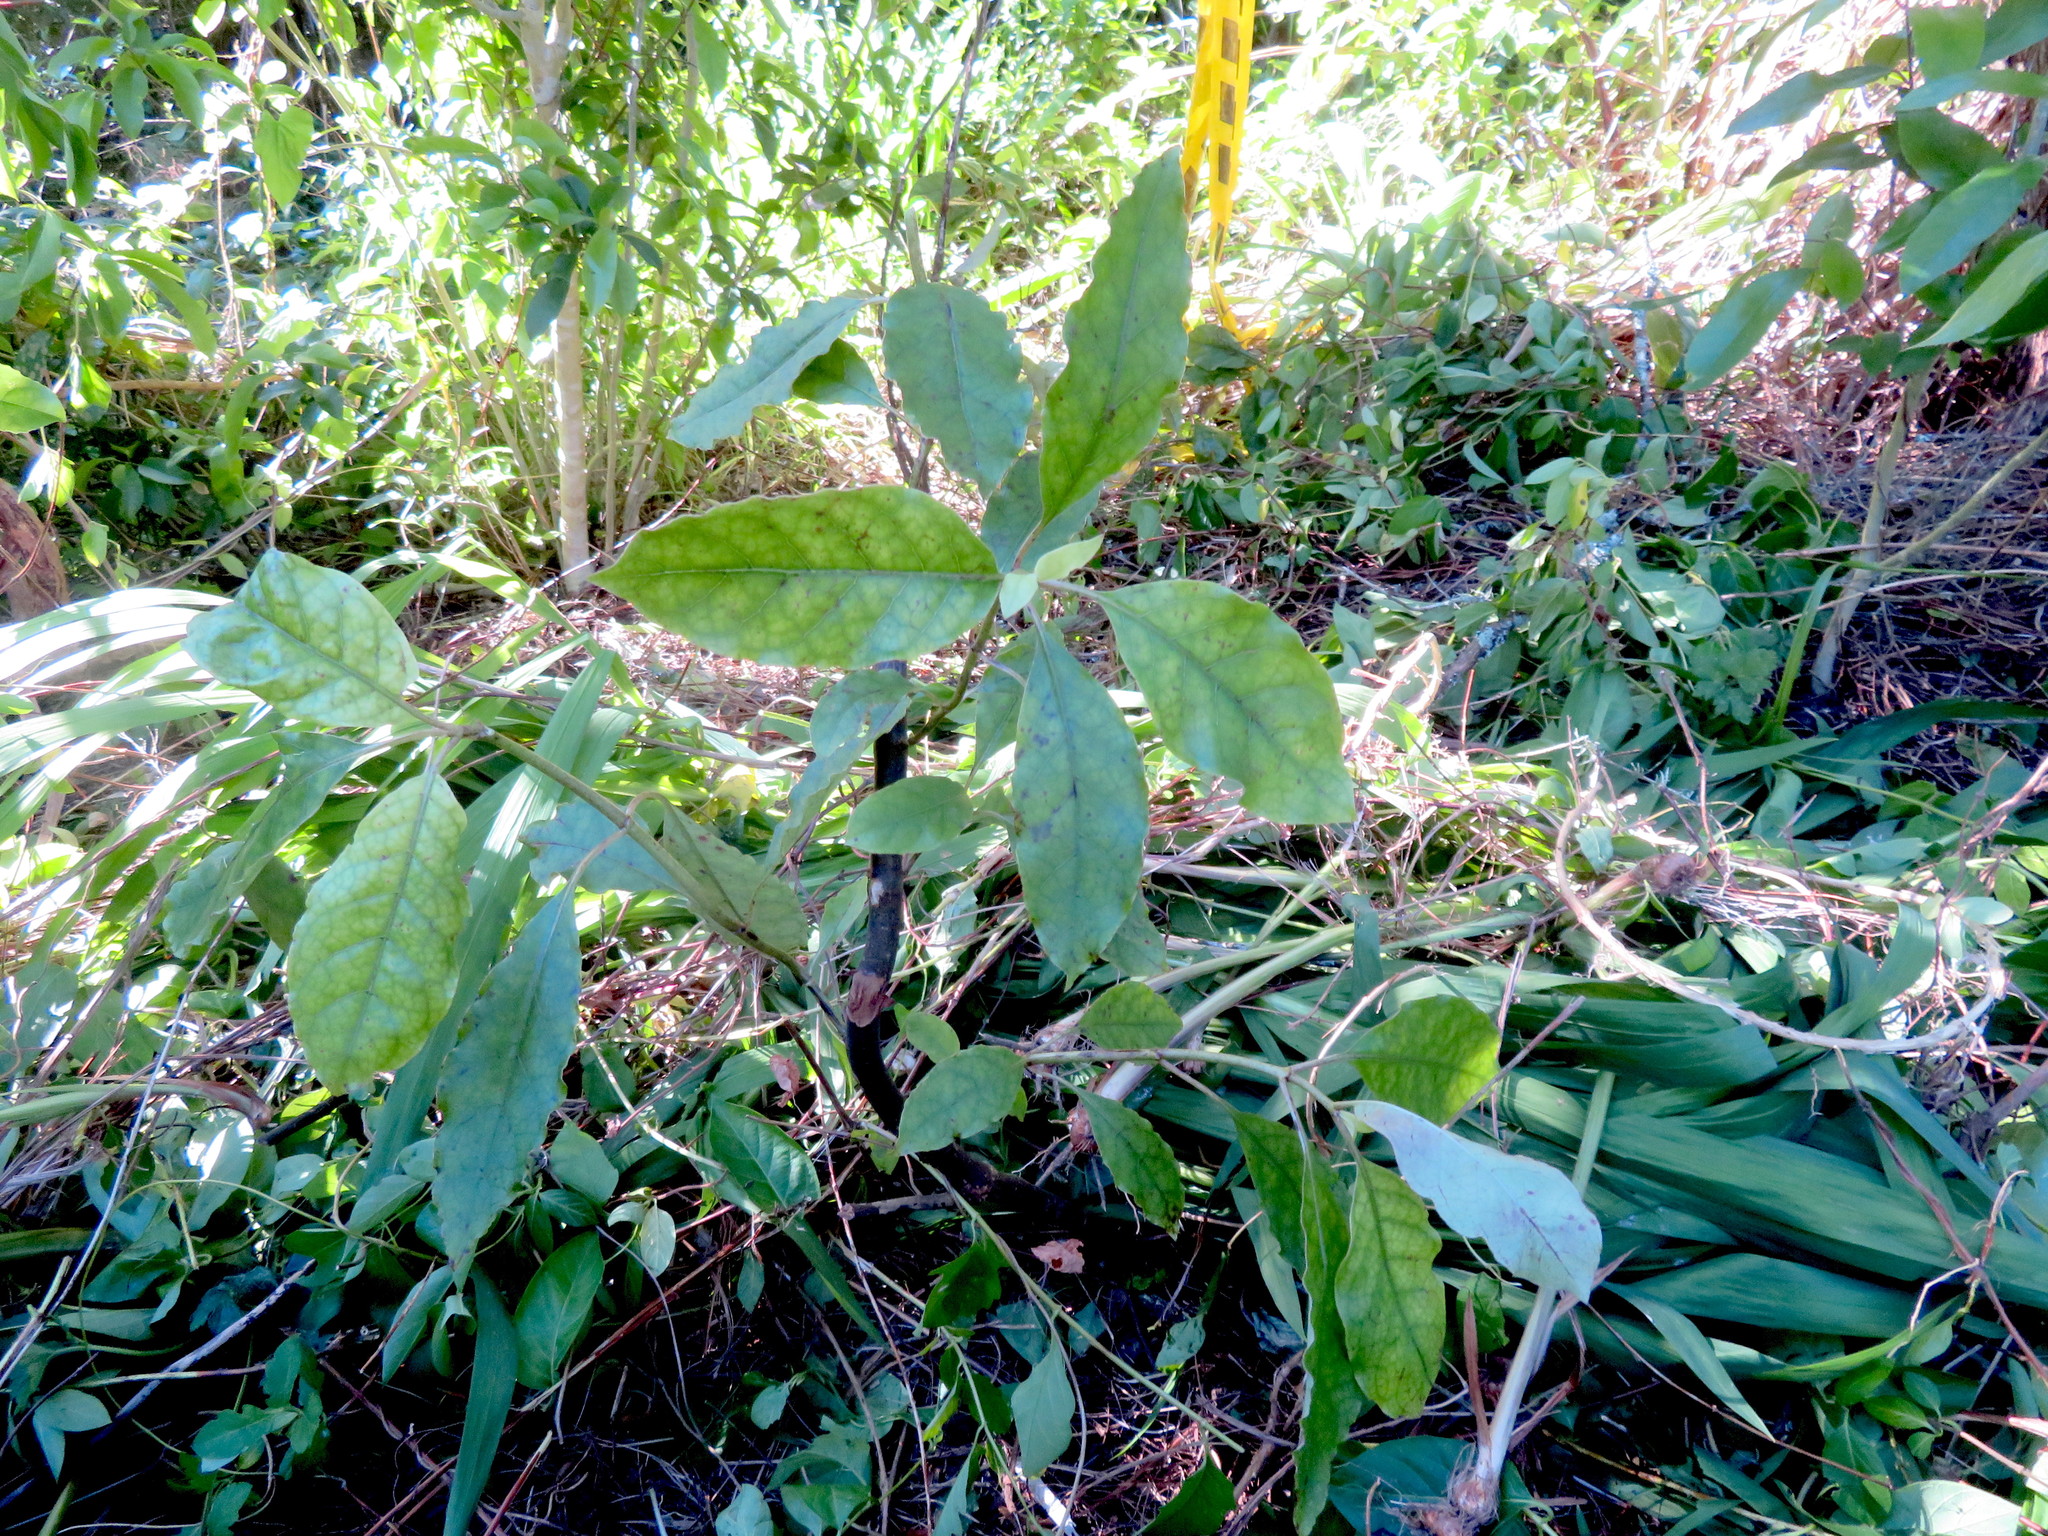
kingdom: Plantae
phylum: Tracheophyta
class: Magnoliopsida
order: Gentianales
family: Rubiaceae
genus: Coprosma
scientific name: Coprosma autumnalis
